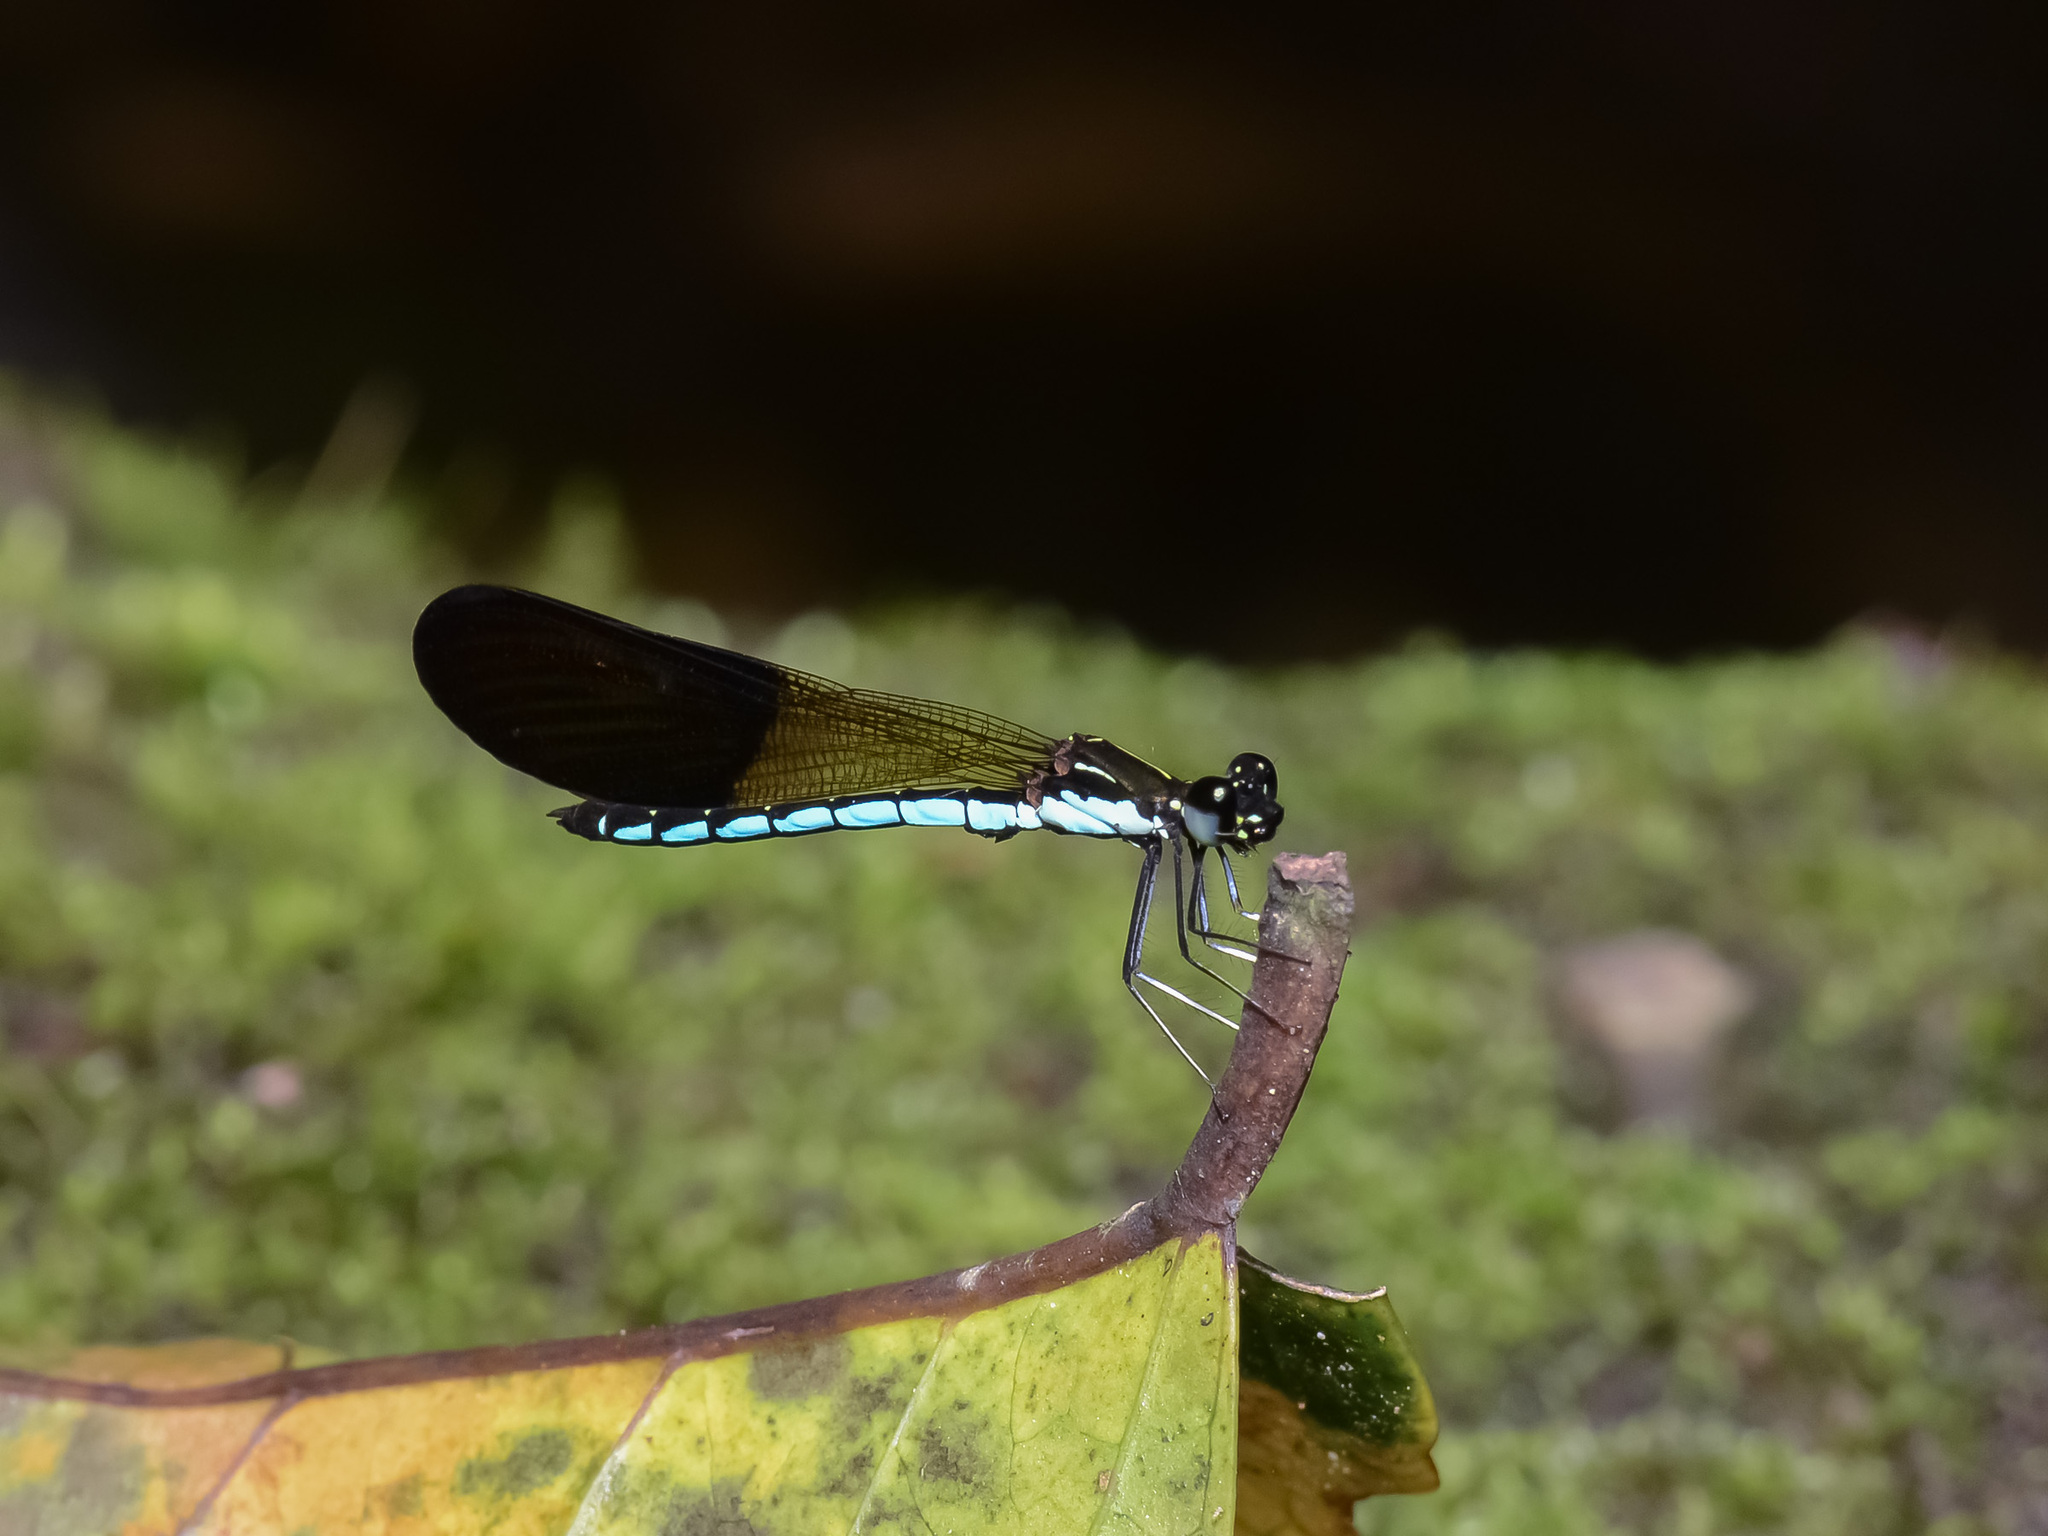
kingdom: Animalia
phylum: Arthropoda
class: Insecta
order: Odonata
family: Chlorocyphidae
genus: Rhinocypha
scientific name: Rhinocypha colorata
